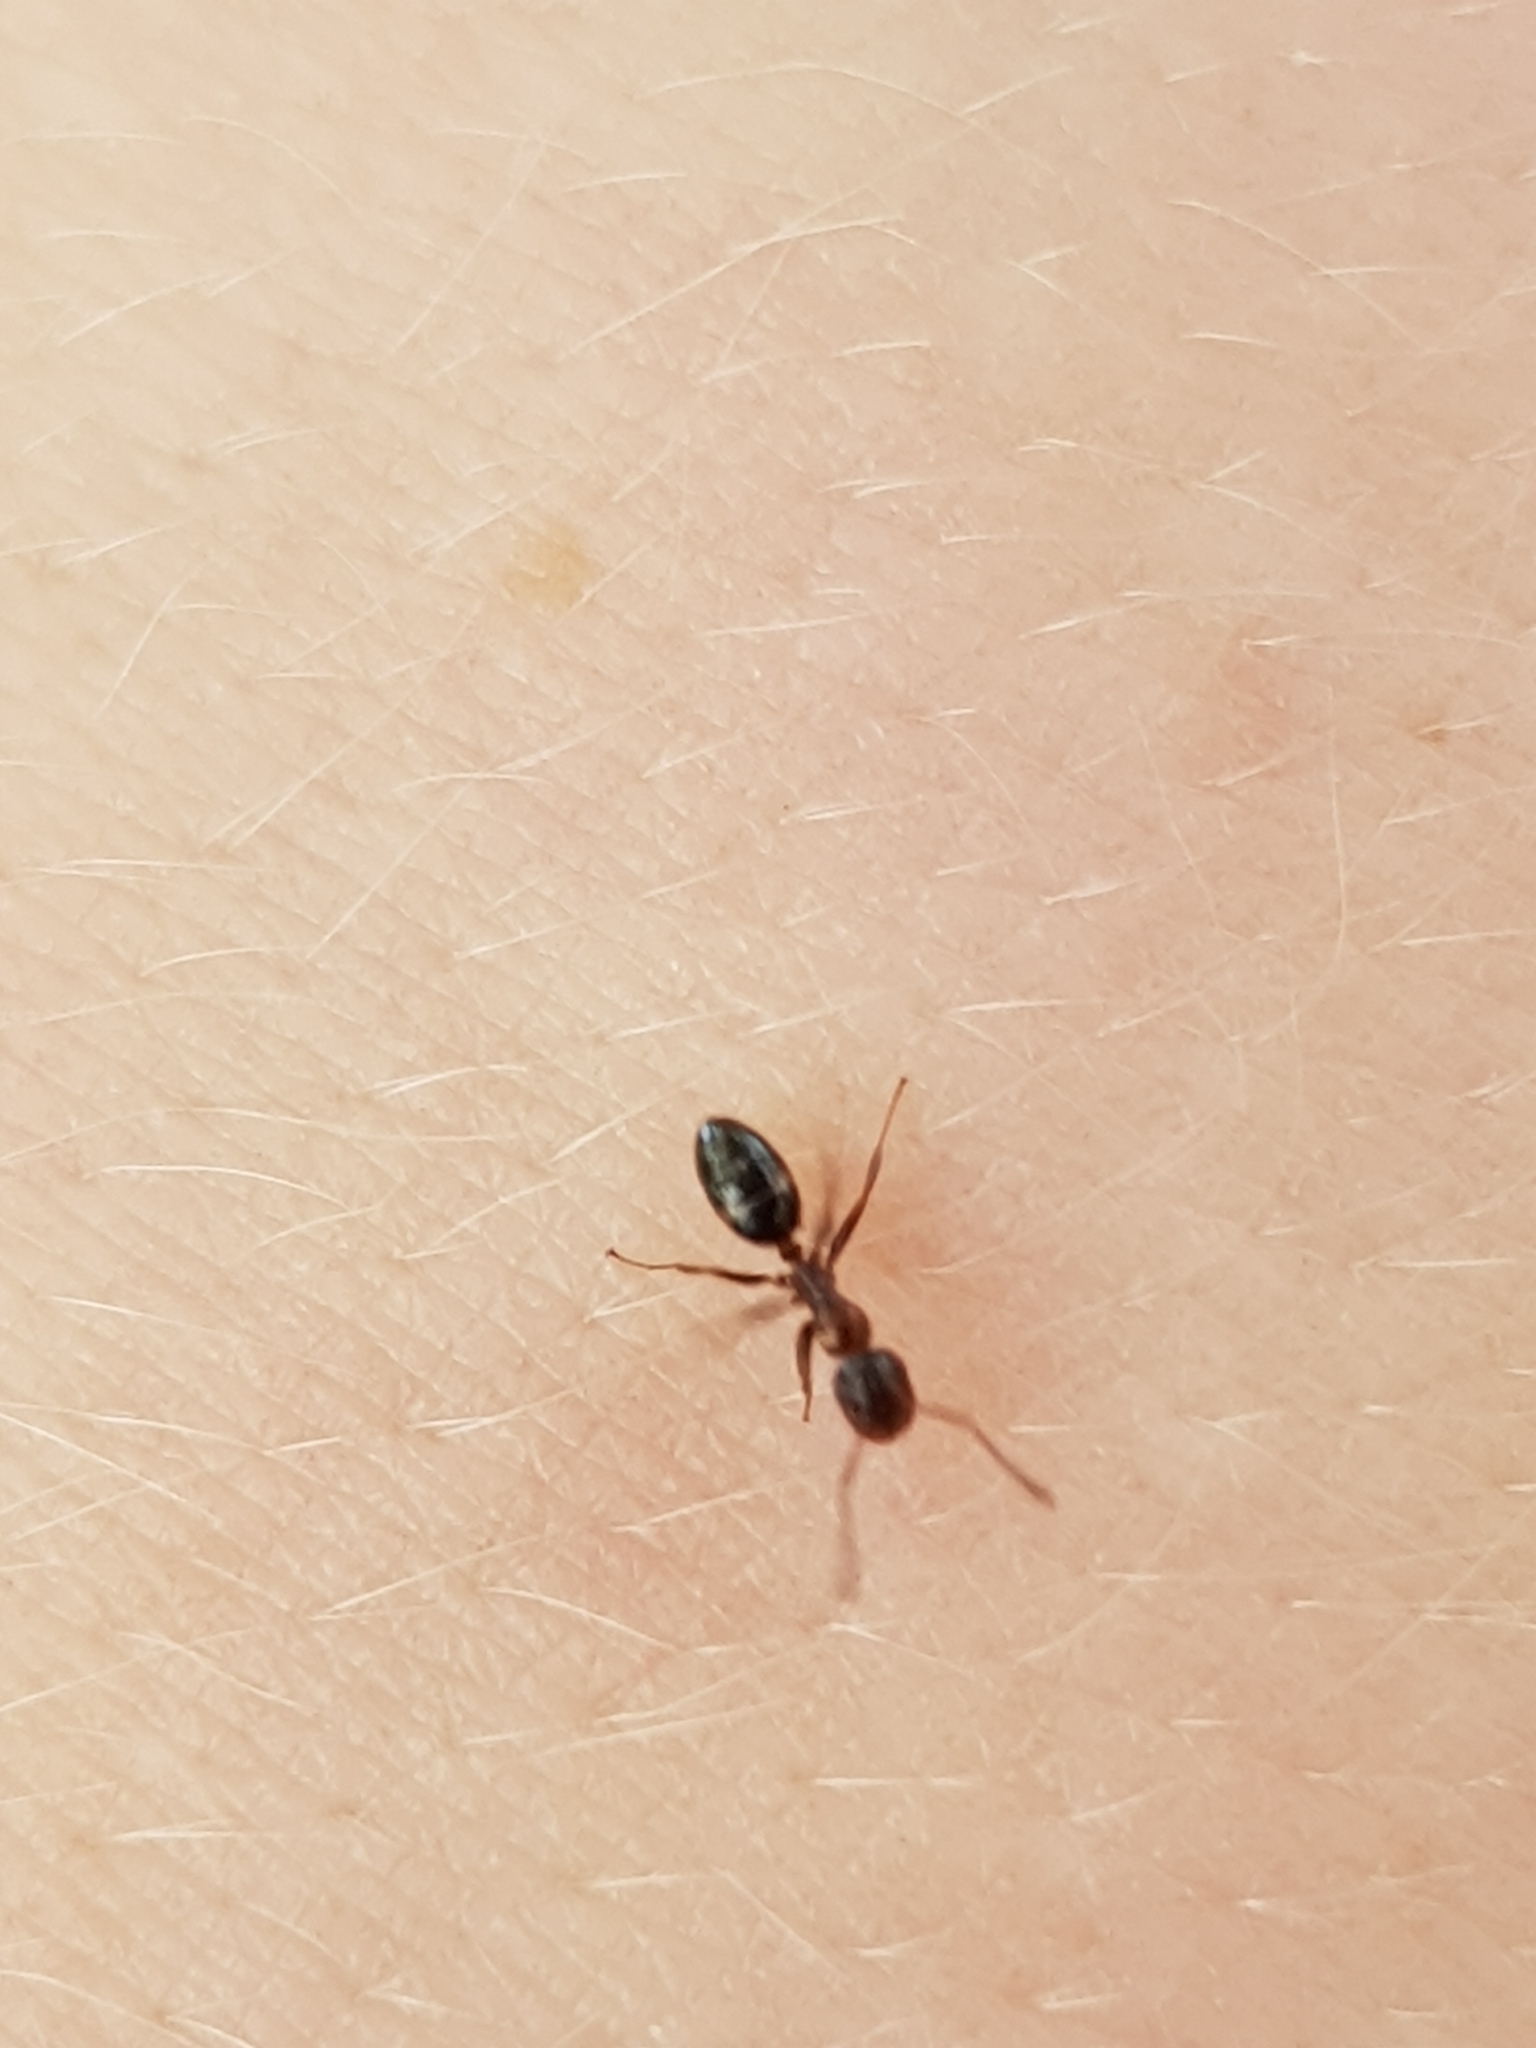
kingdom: Animalia
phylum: Arthropoda
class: Insecta
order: Hymenoptera
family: Formicidae
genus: Camponotus
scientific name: Camponotus truncatus
